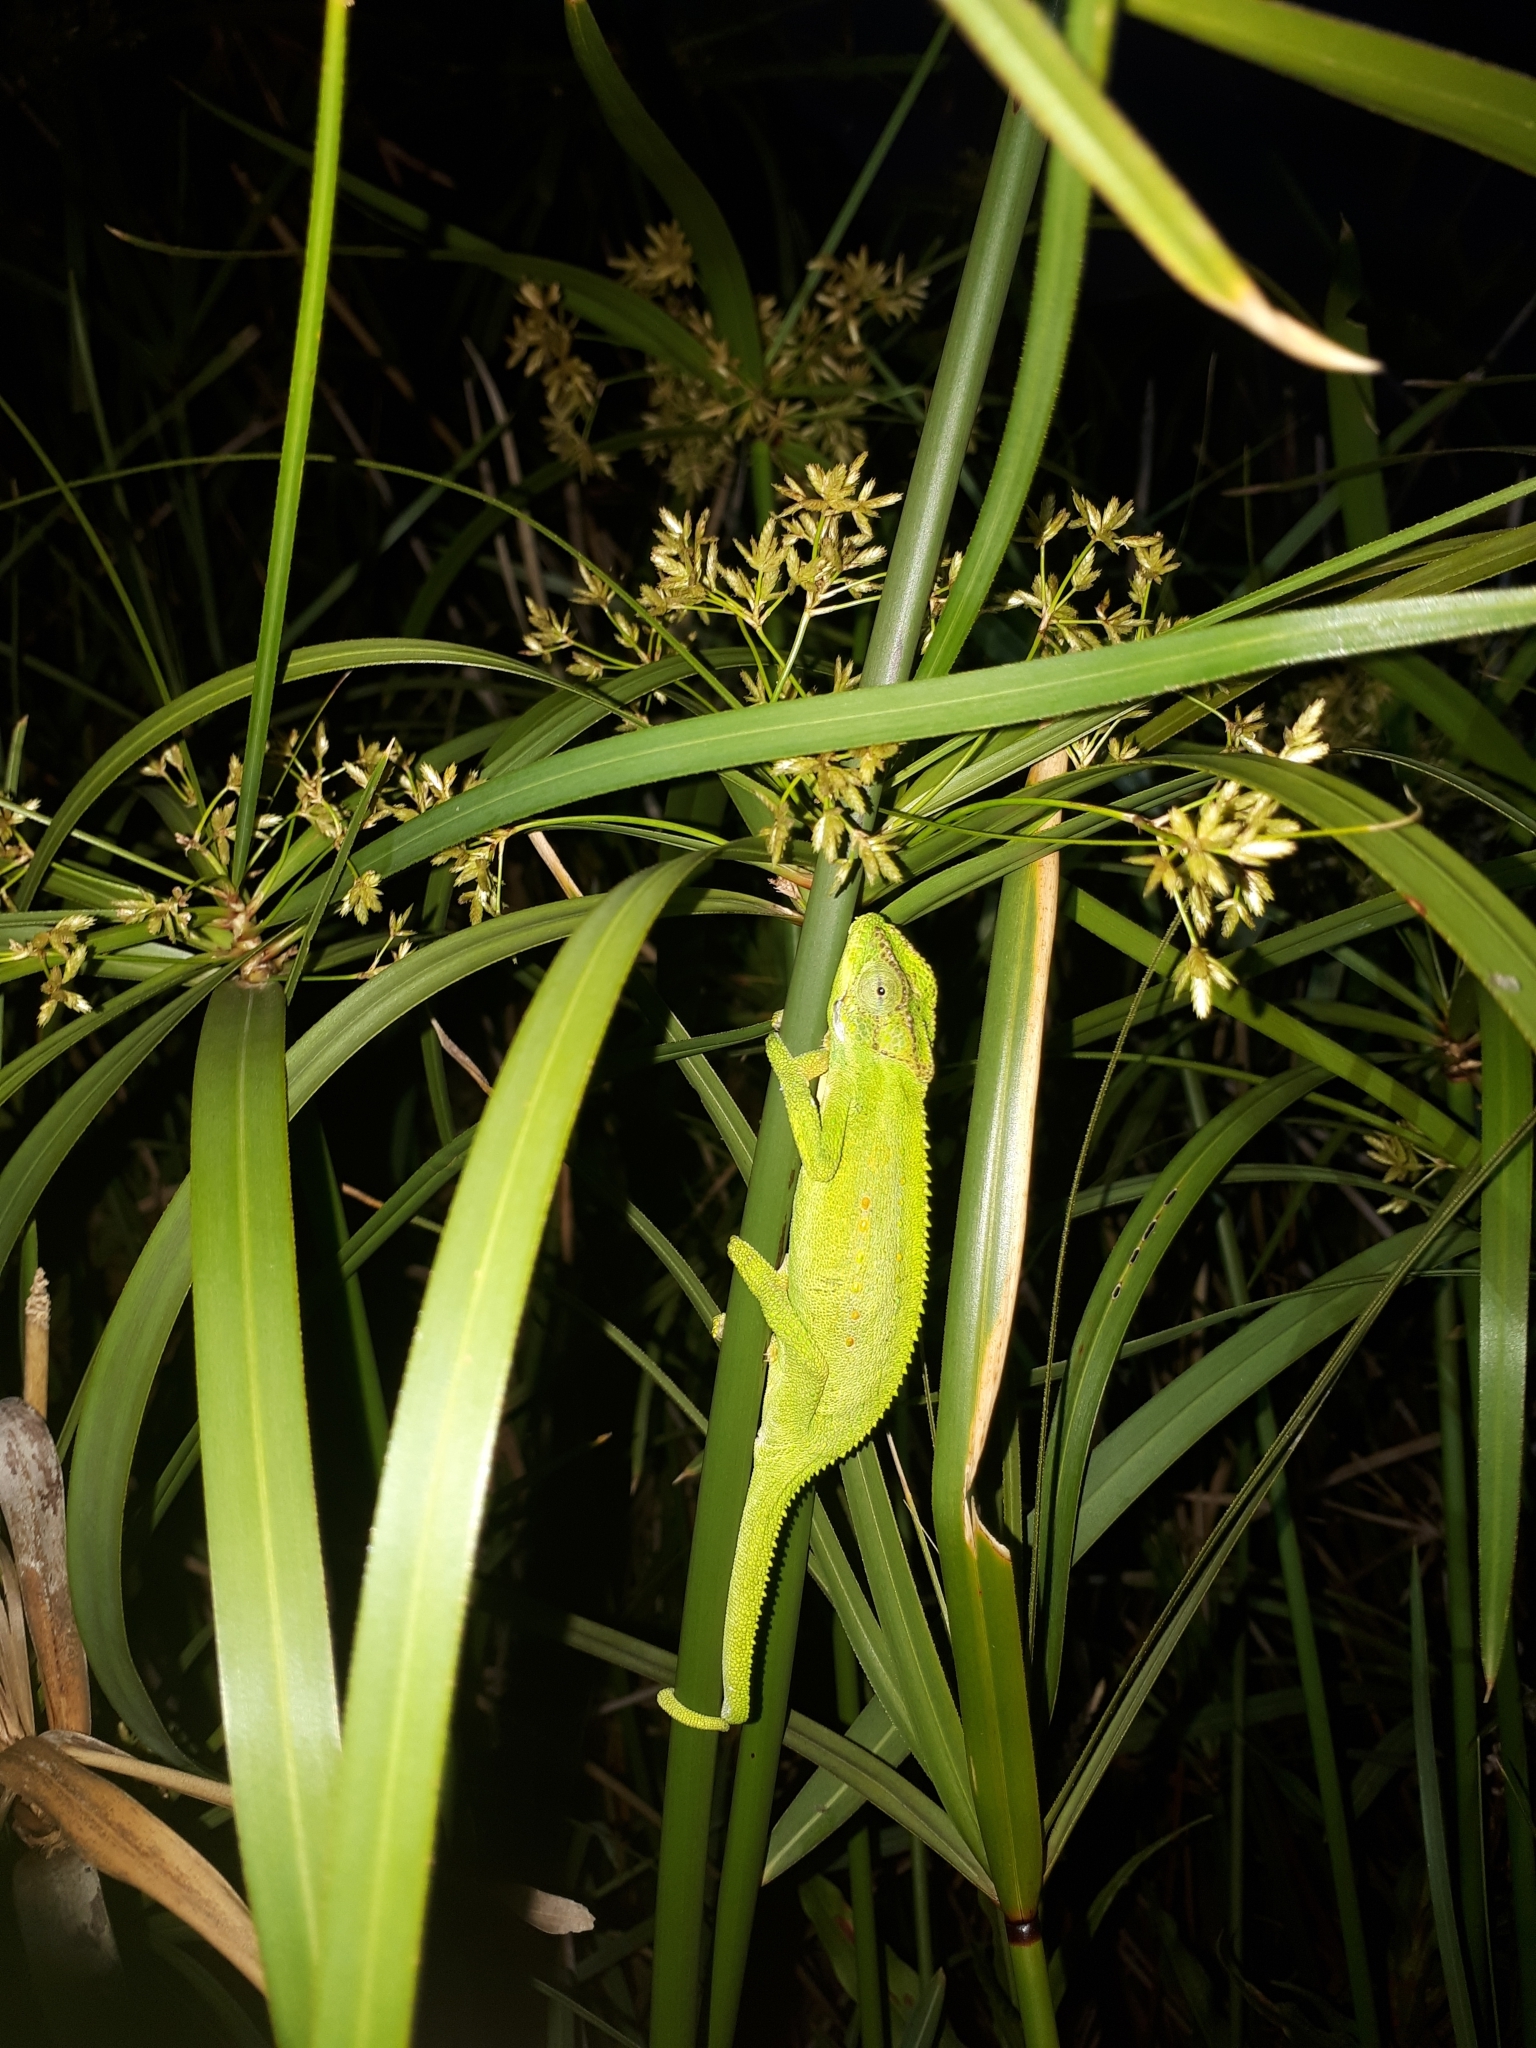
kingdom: Animalia
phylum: Chordata
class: Squamata
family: Chamaeleonidae
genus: Bradypodion
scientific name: Bradypodion pumilum
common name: Cape dwarf chameleon
